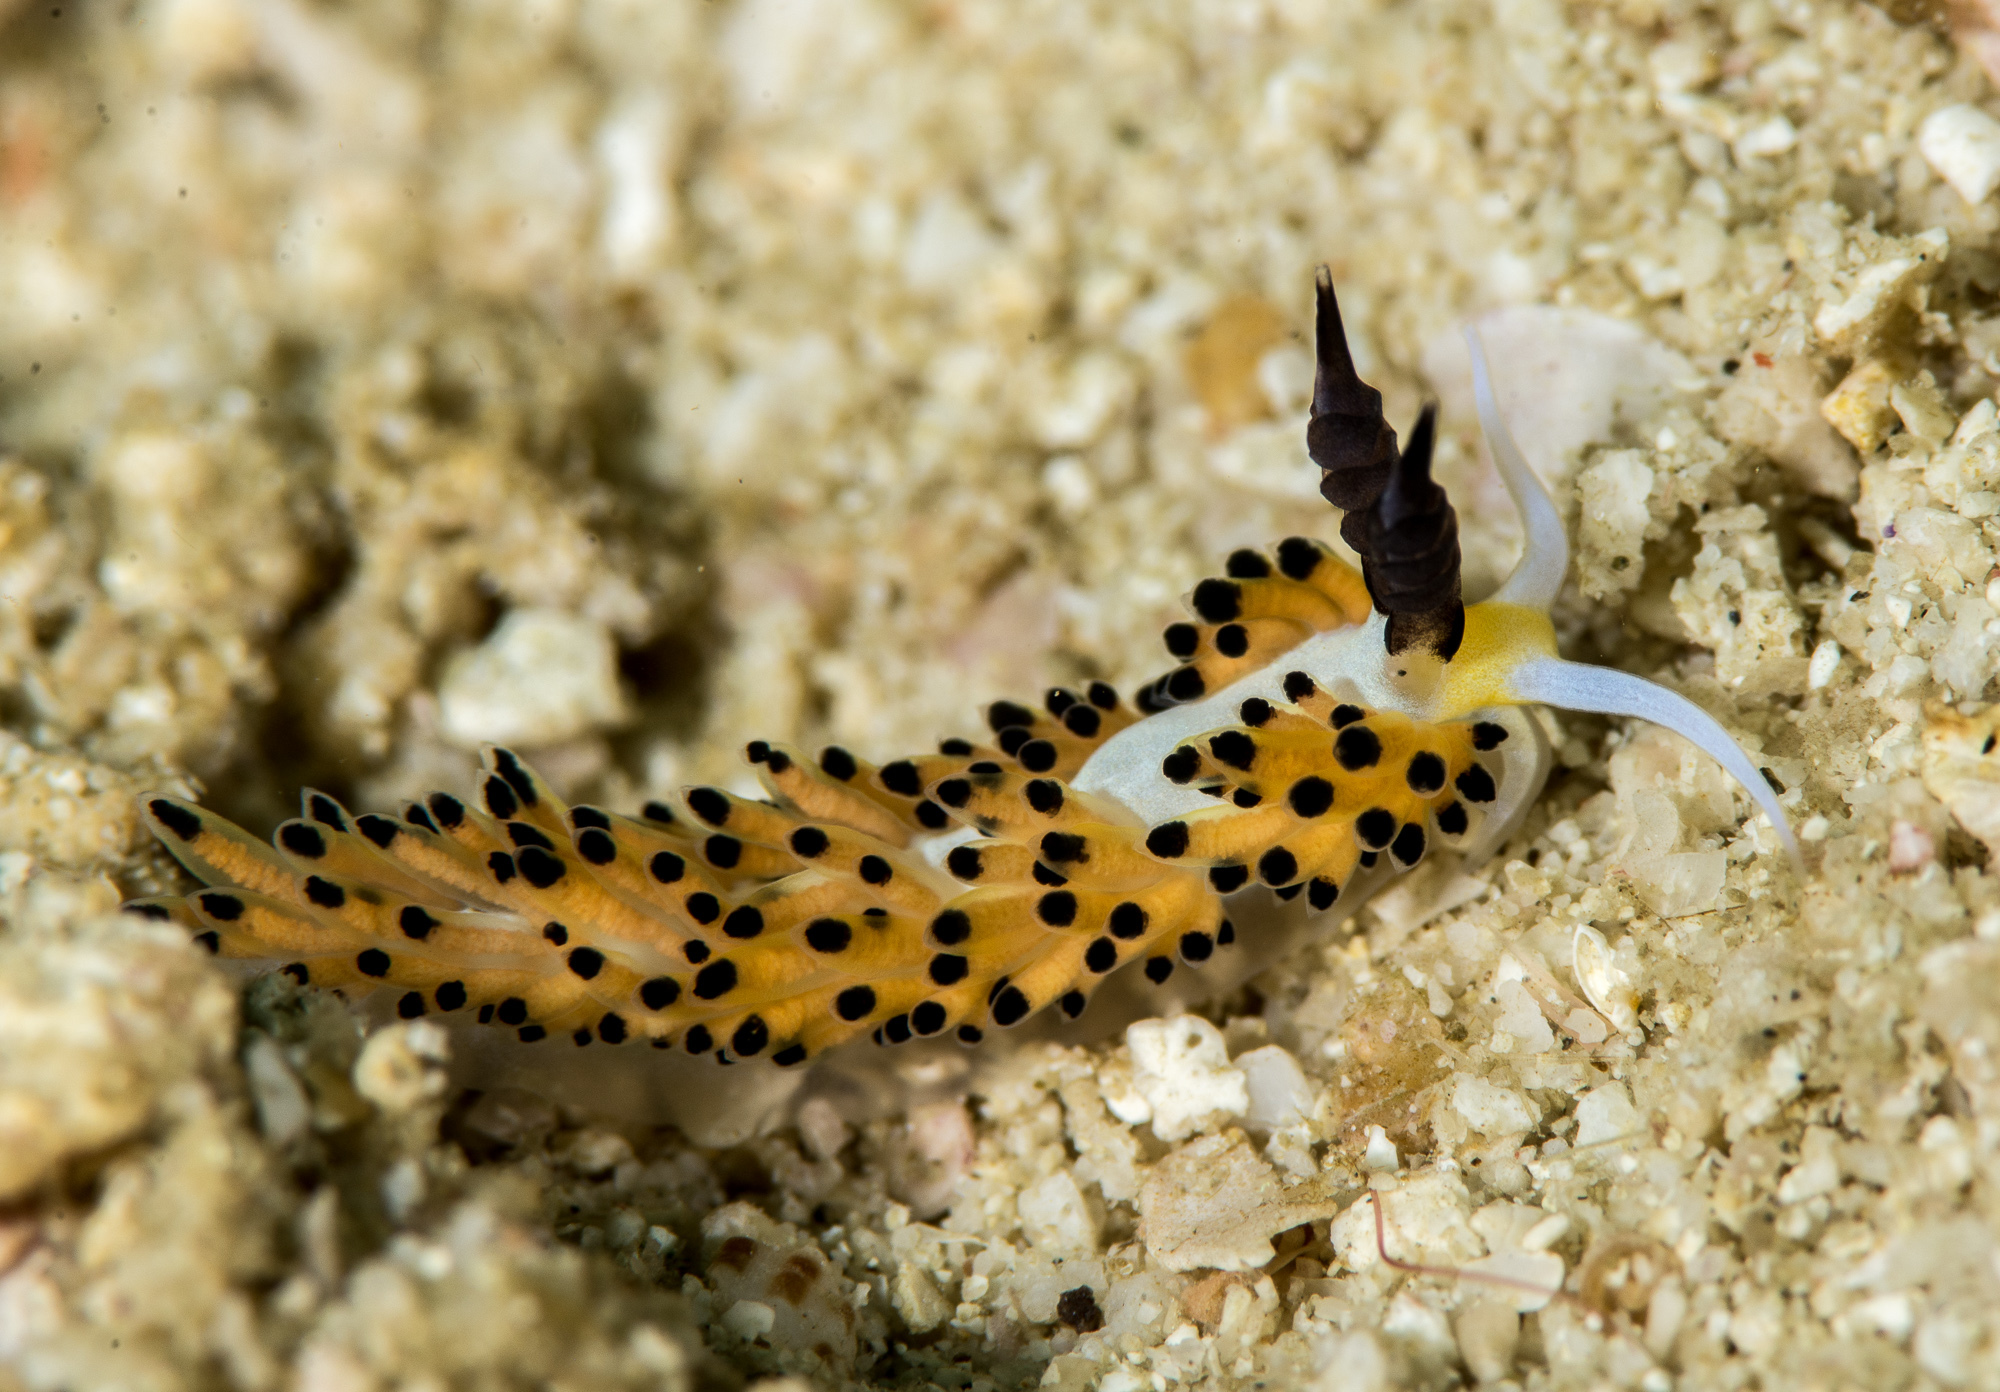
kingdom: Animalia
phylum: Mollusca
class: Gastropoda
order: Nudibranchia
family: Facelinidae
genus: Favorinus
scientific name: Favorinus tsuruganus
